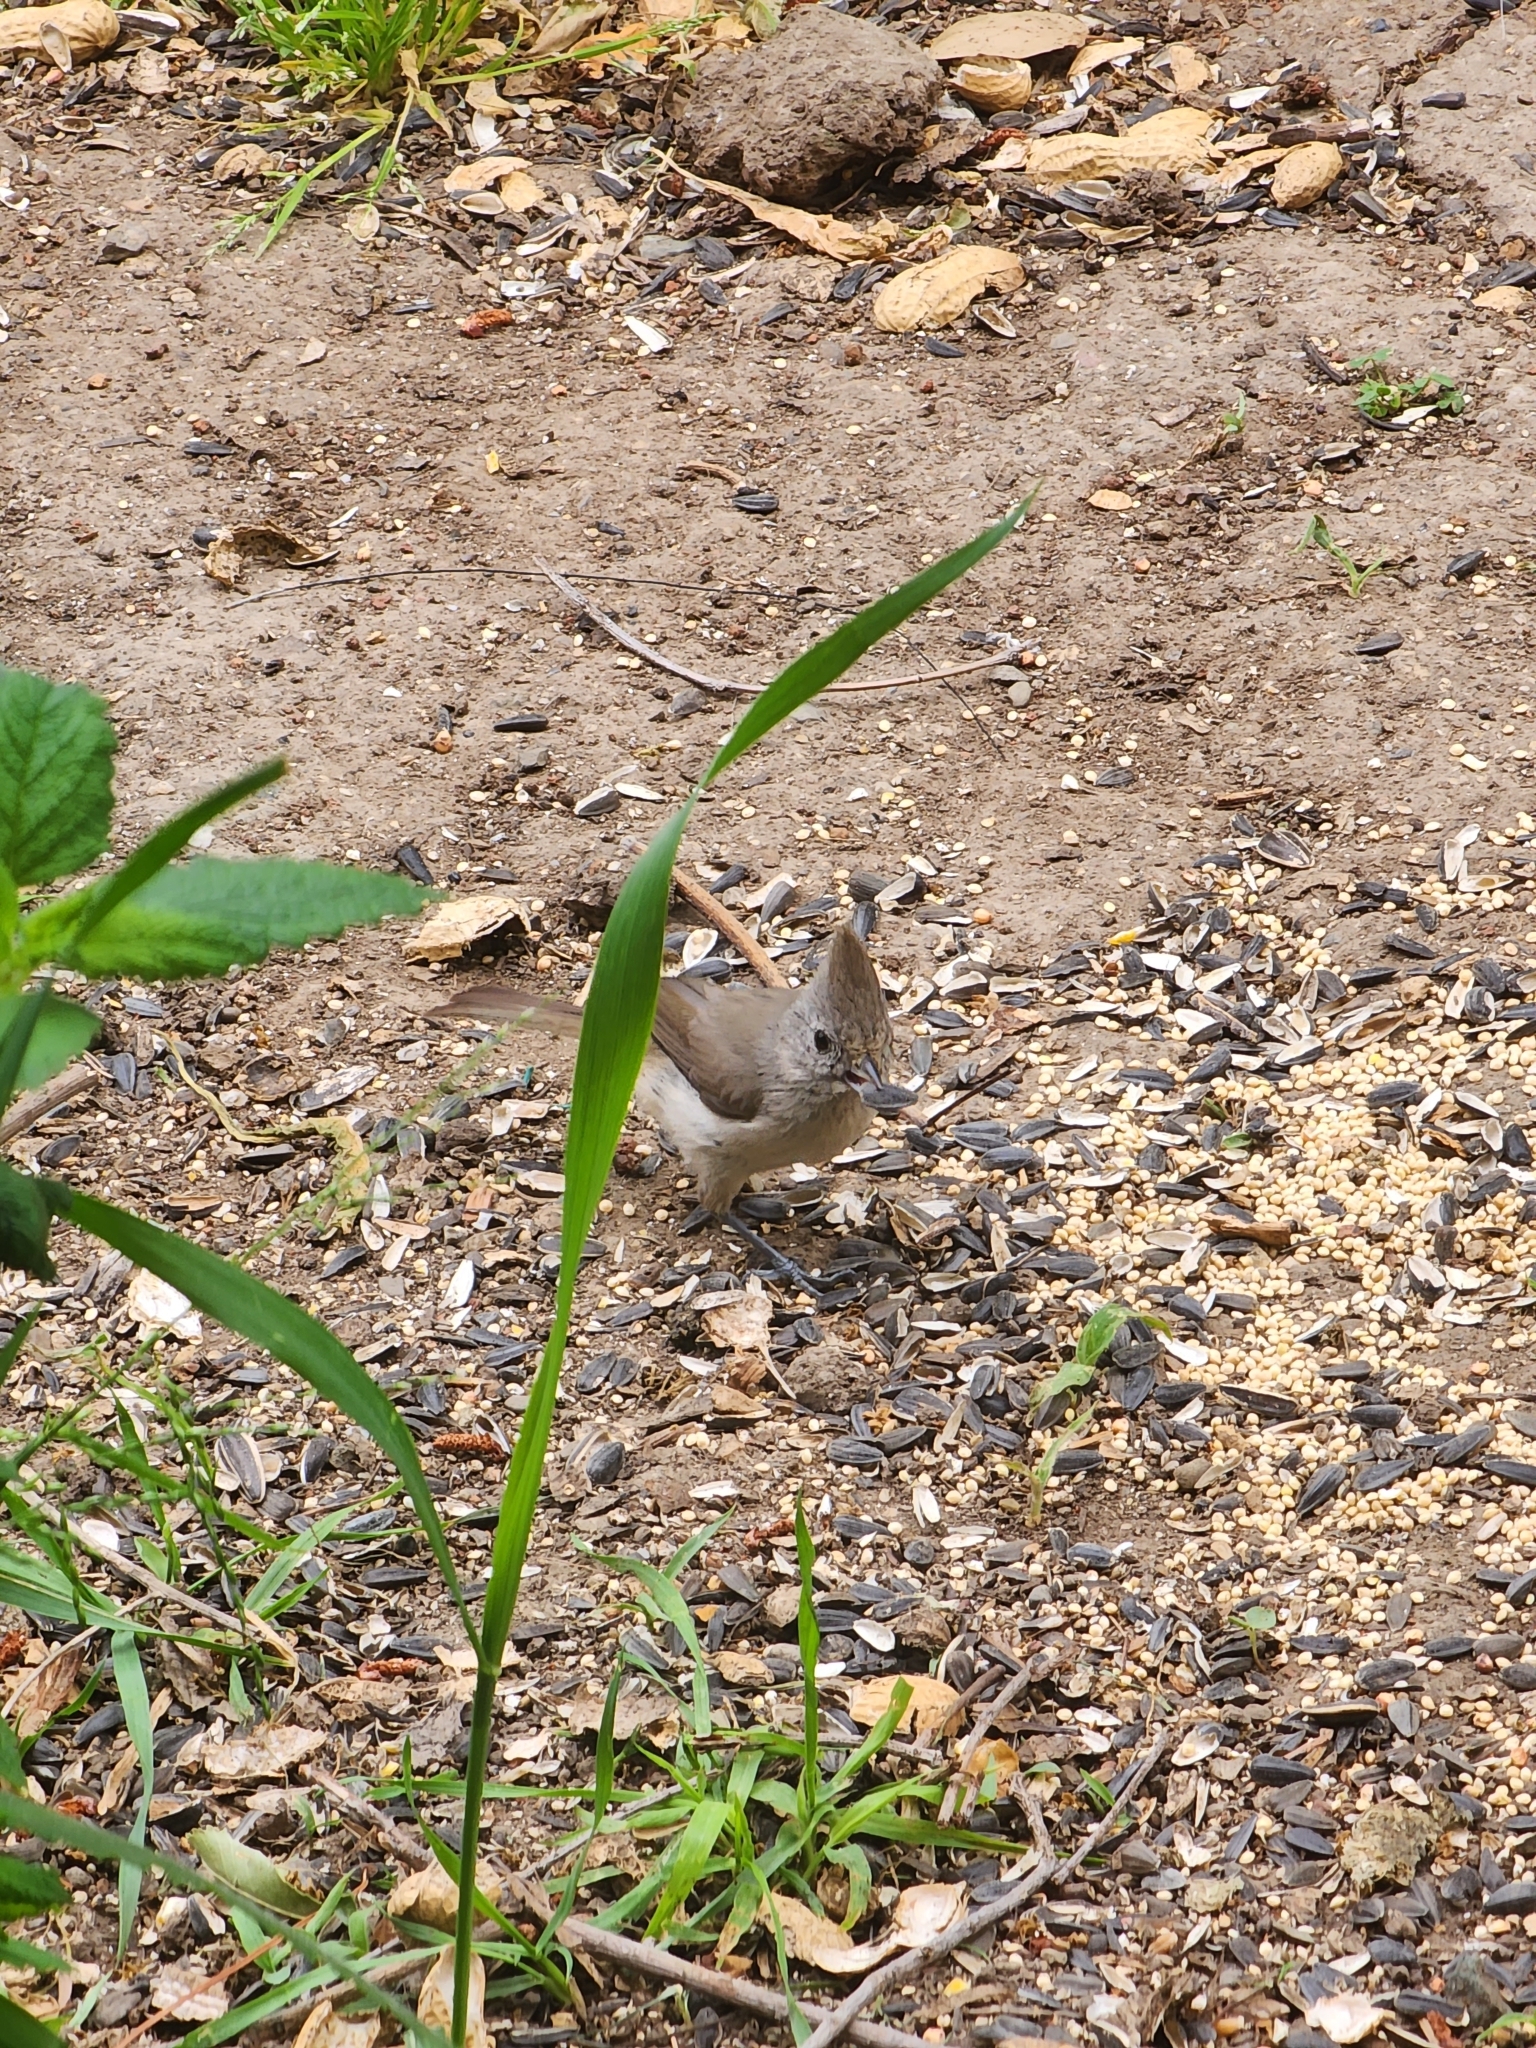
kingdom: Animalia
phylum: Chordata
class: Aves
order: Passeriformes
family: Paridae
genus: Baeolophus
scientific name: Baeolophus inornatus
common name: Oak titmouse
